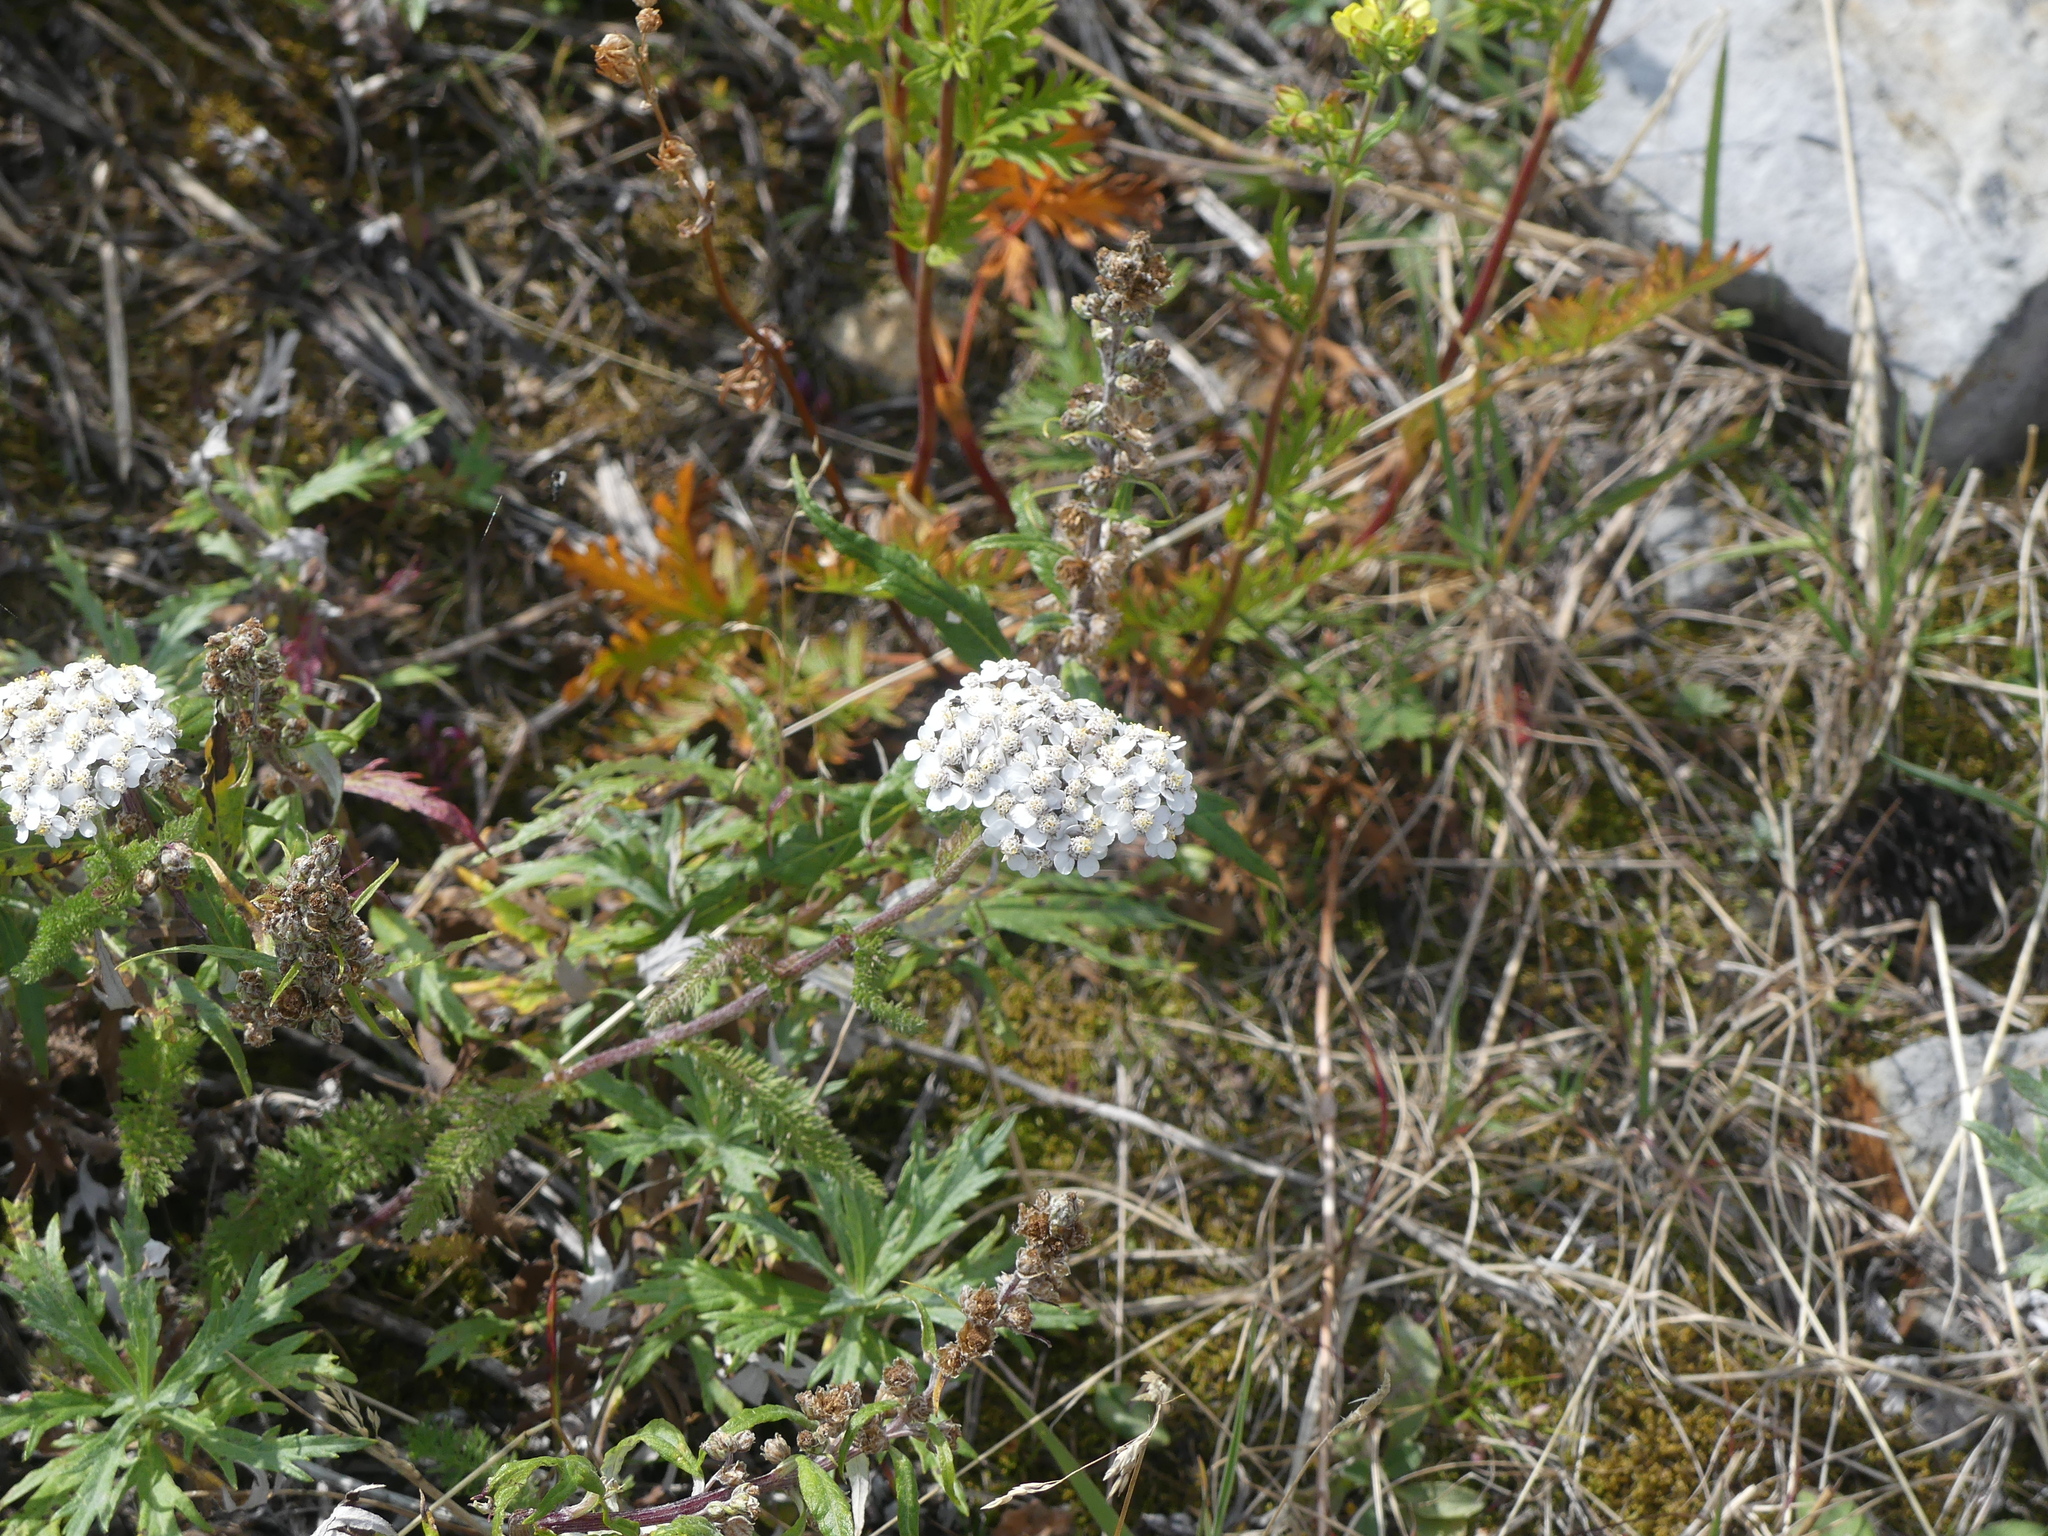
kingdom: Plantae
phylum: Tracheophyta
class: Magnoliopsida
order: Asterales
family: Asteraceae
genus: Achillea
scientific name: Achillea millefolium
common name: Yarrow
